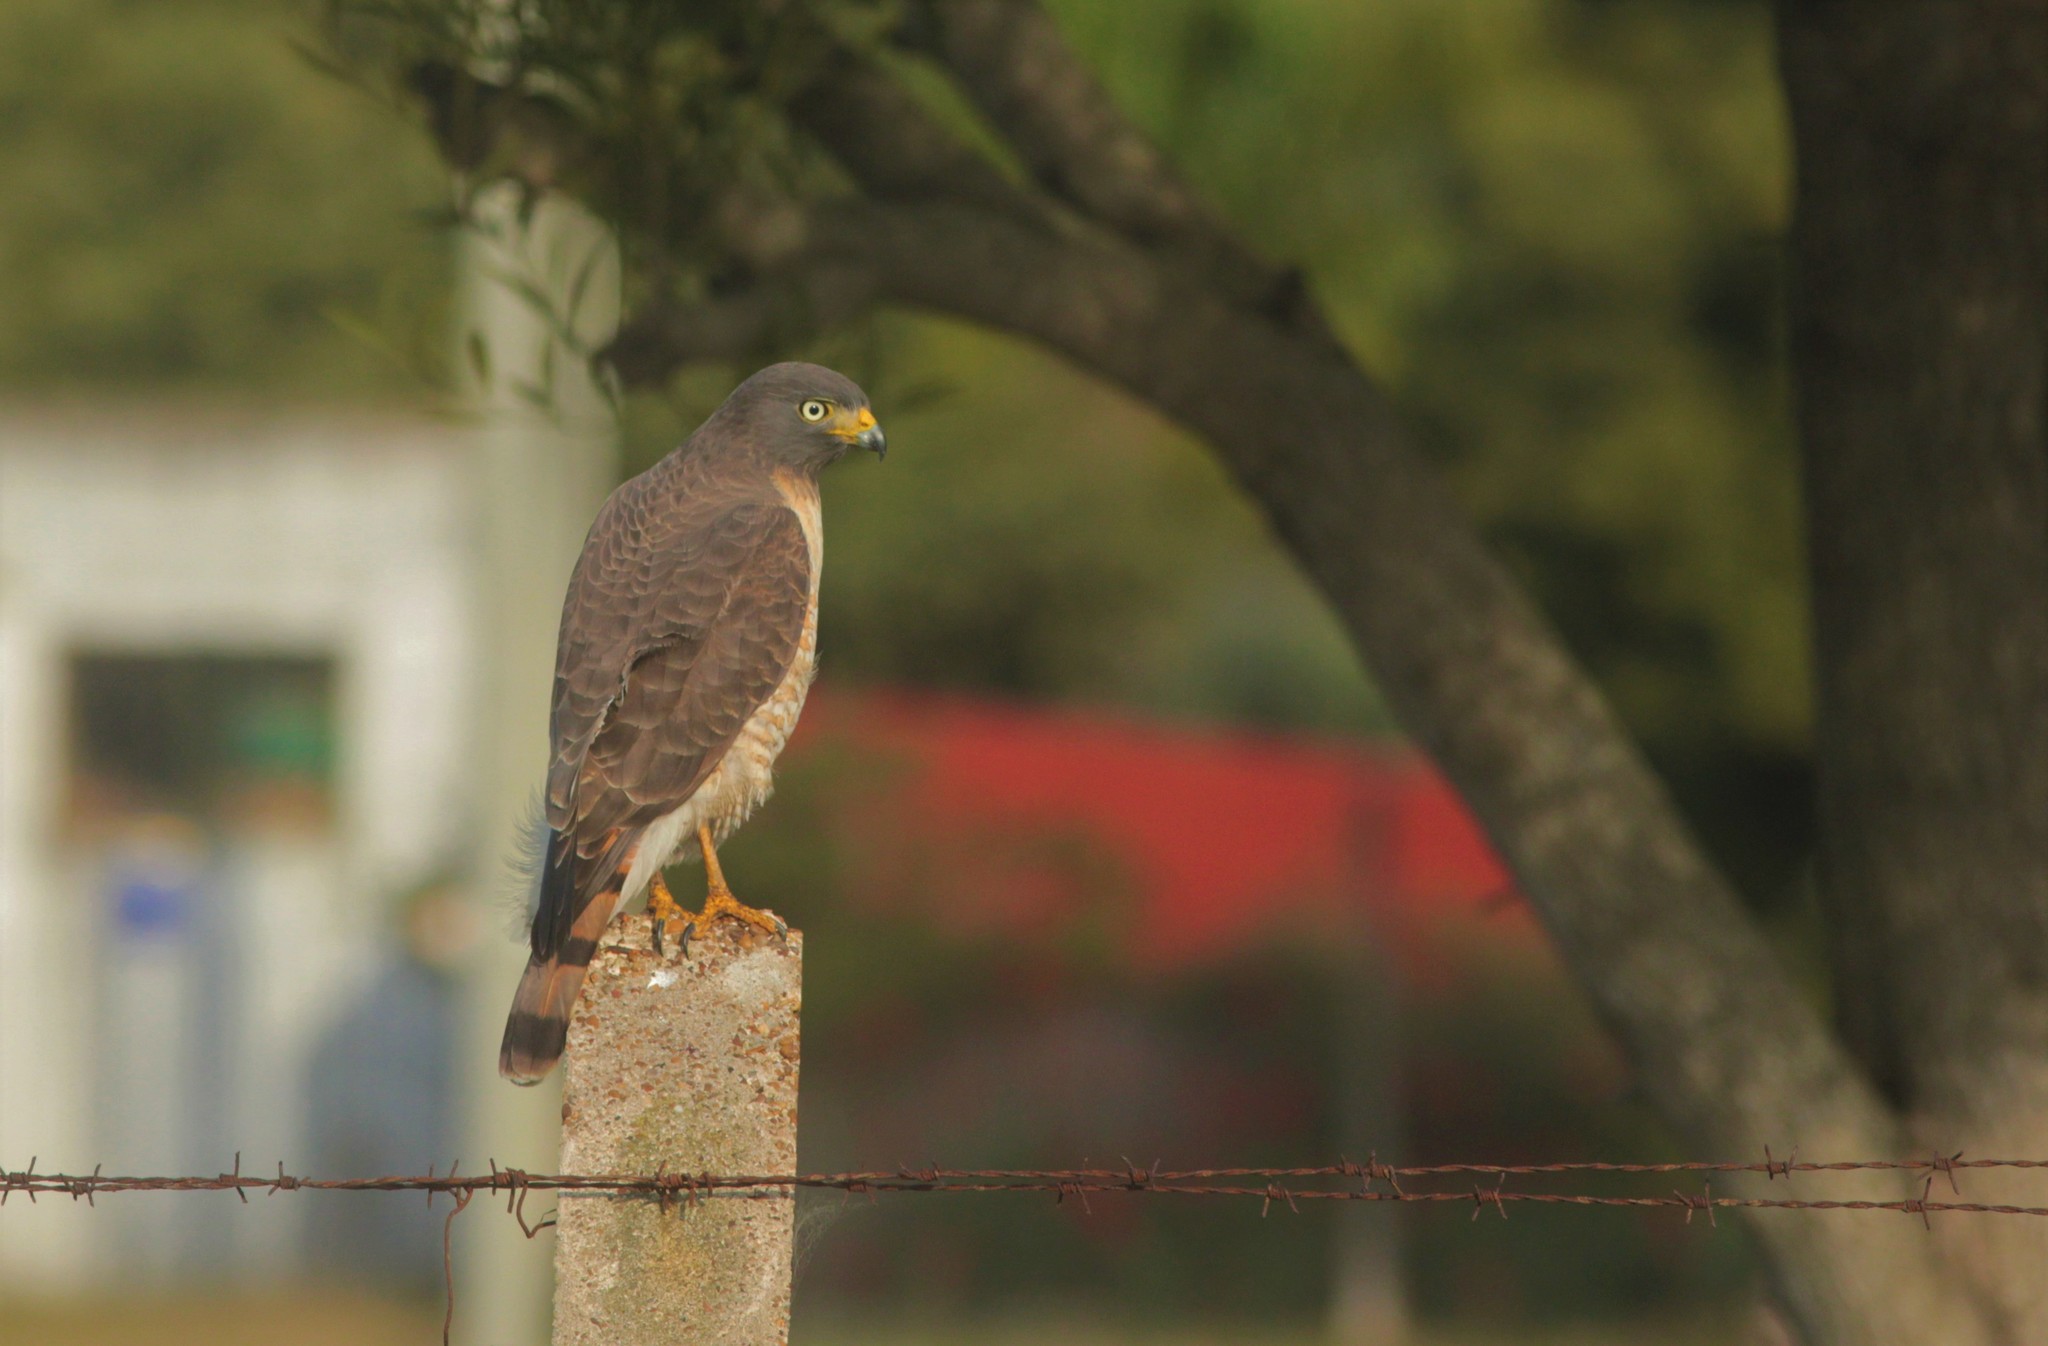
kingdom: Animalia
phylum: Chordata
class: Aves
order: Accipitriformes
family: Accipitridae
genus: Rupornis
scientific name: Rupornis magnirostris
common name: Roadside hawk
